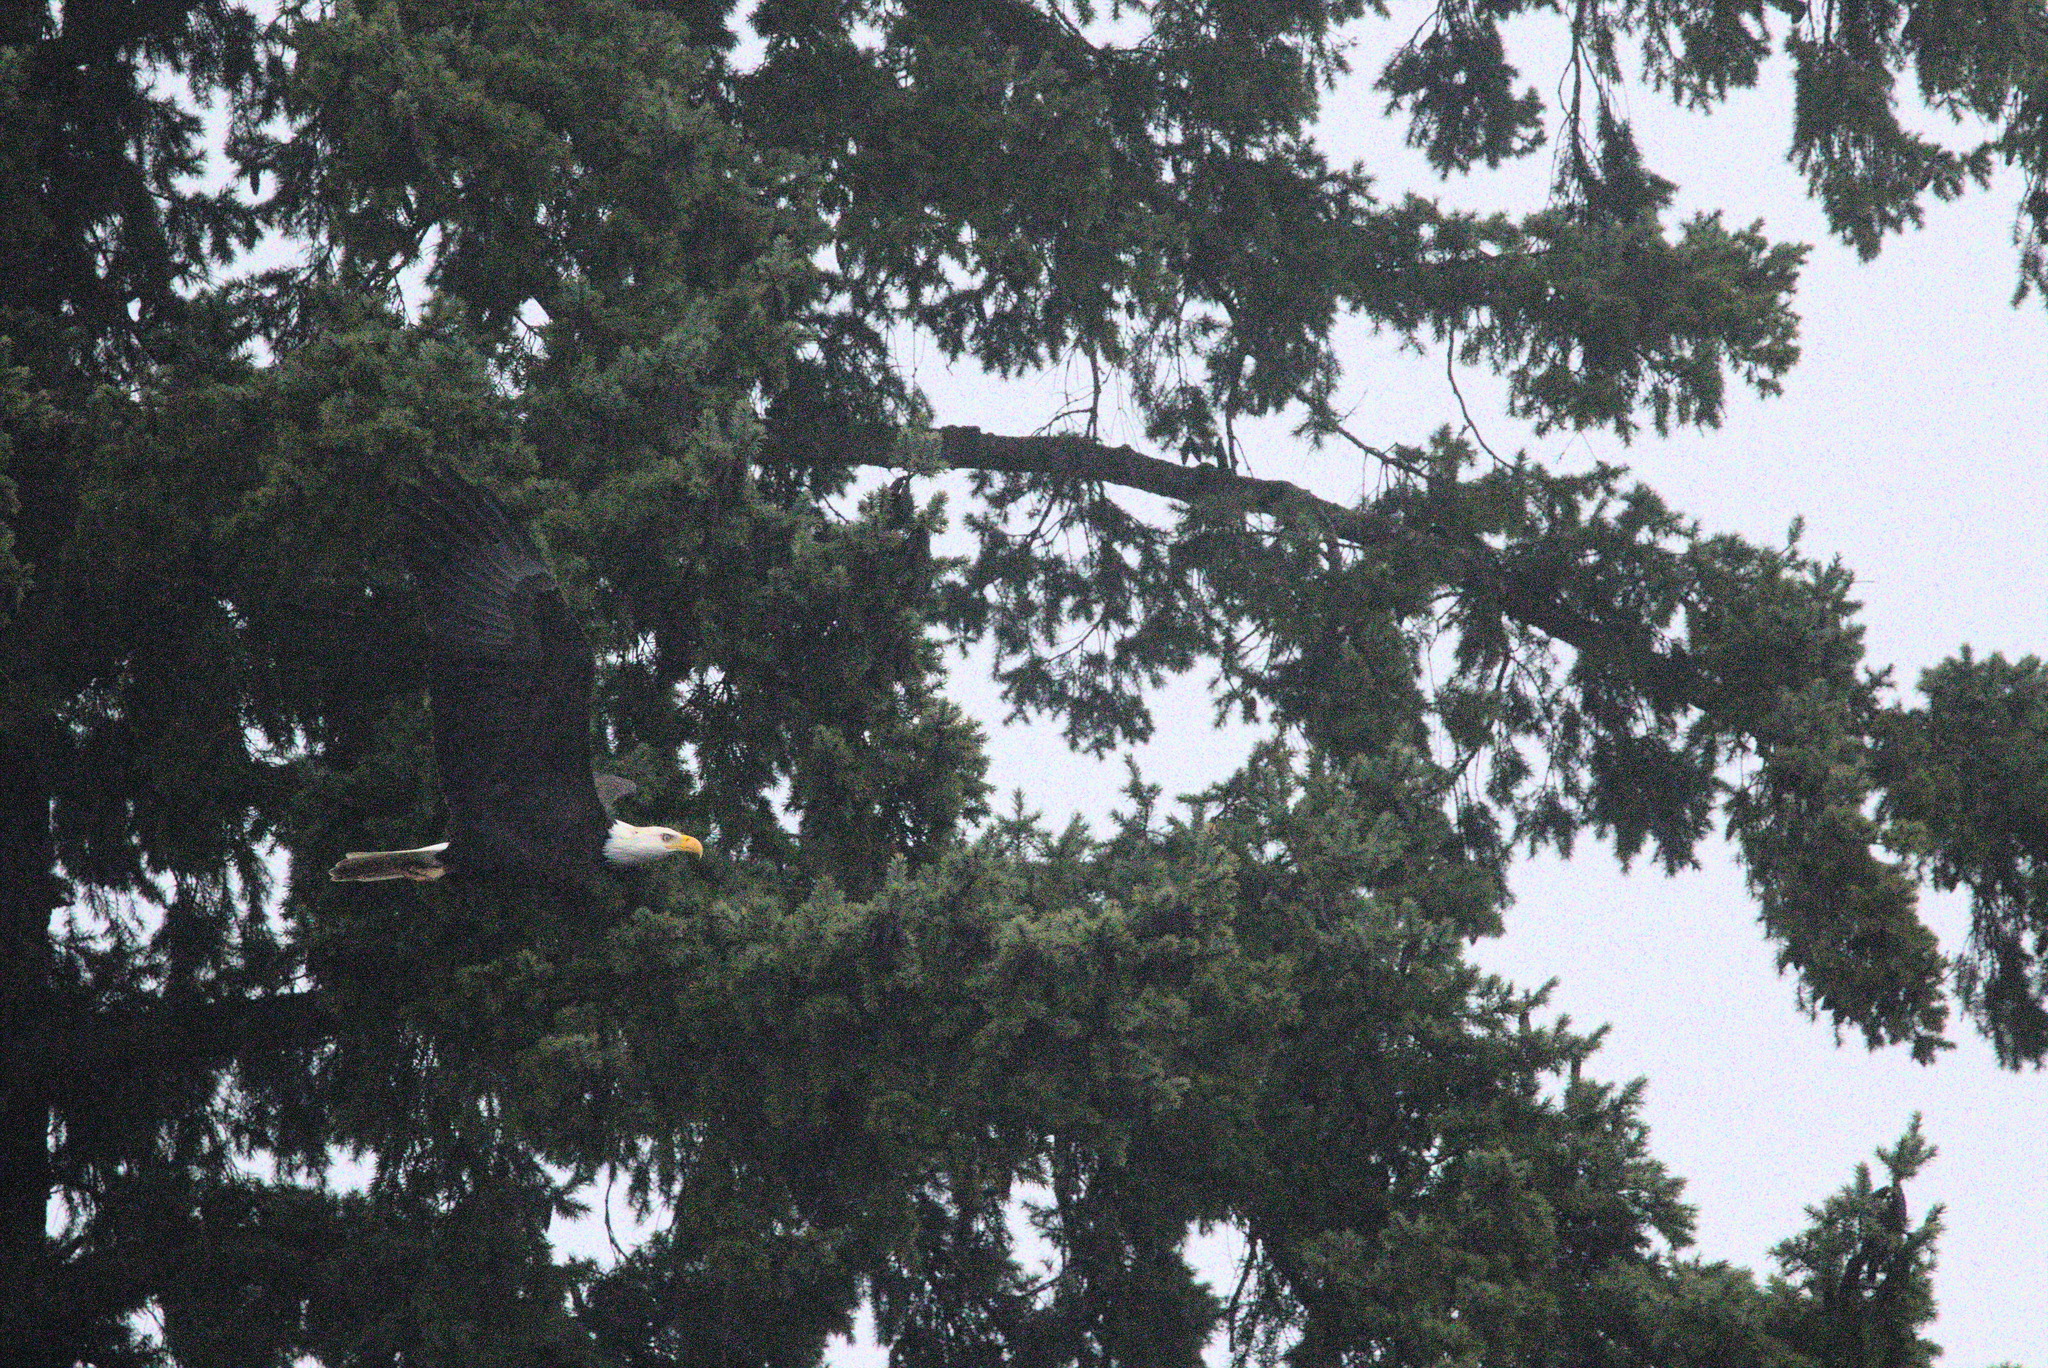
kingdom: Animalia
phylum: Chordata
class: Aves
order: Accipitriformes
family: Accipitridae
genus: Haliaeetus
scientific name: Haliaeetus leucocephalus
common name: Bald eagle
